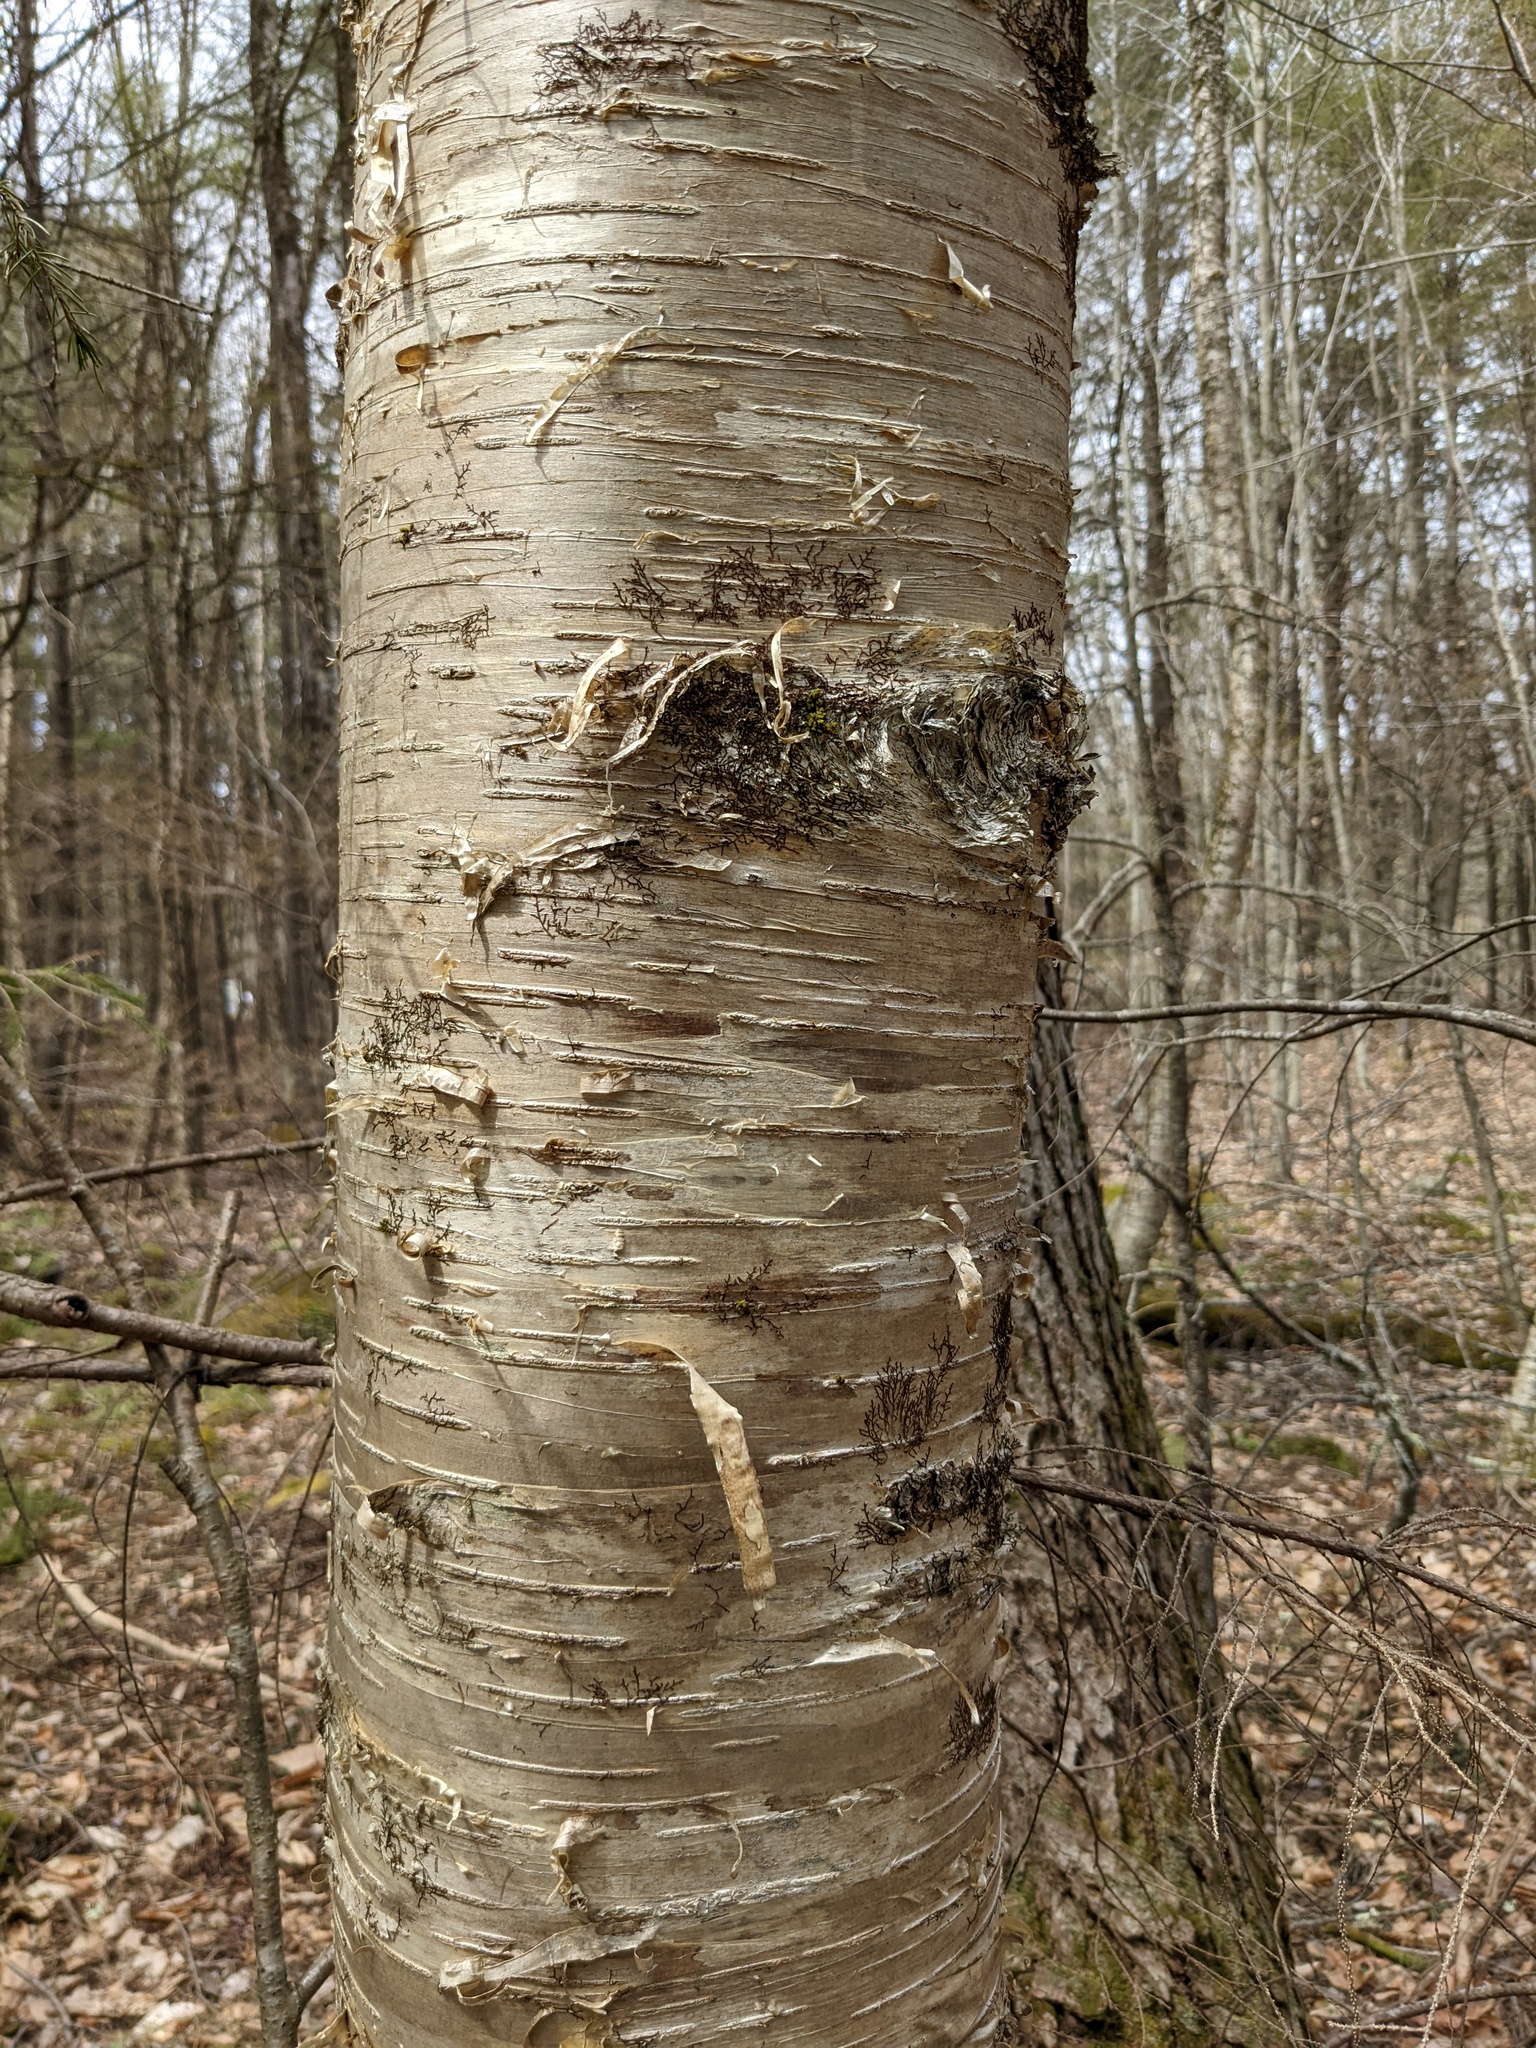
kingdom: Plantae
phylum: Tracheophyta
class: Magnoliopsida
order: Fagales
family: Betulaceae
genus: Betula
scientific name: Betula alleghaniensis
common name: Yellow birch
